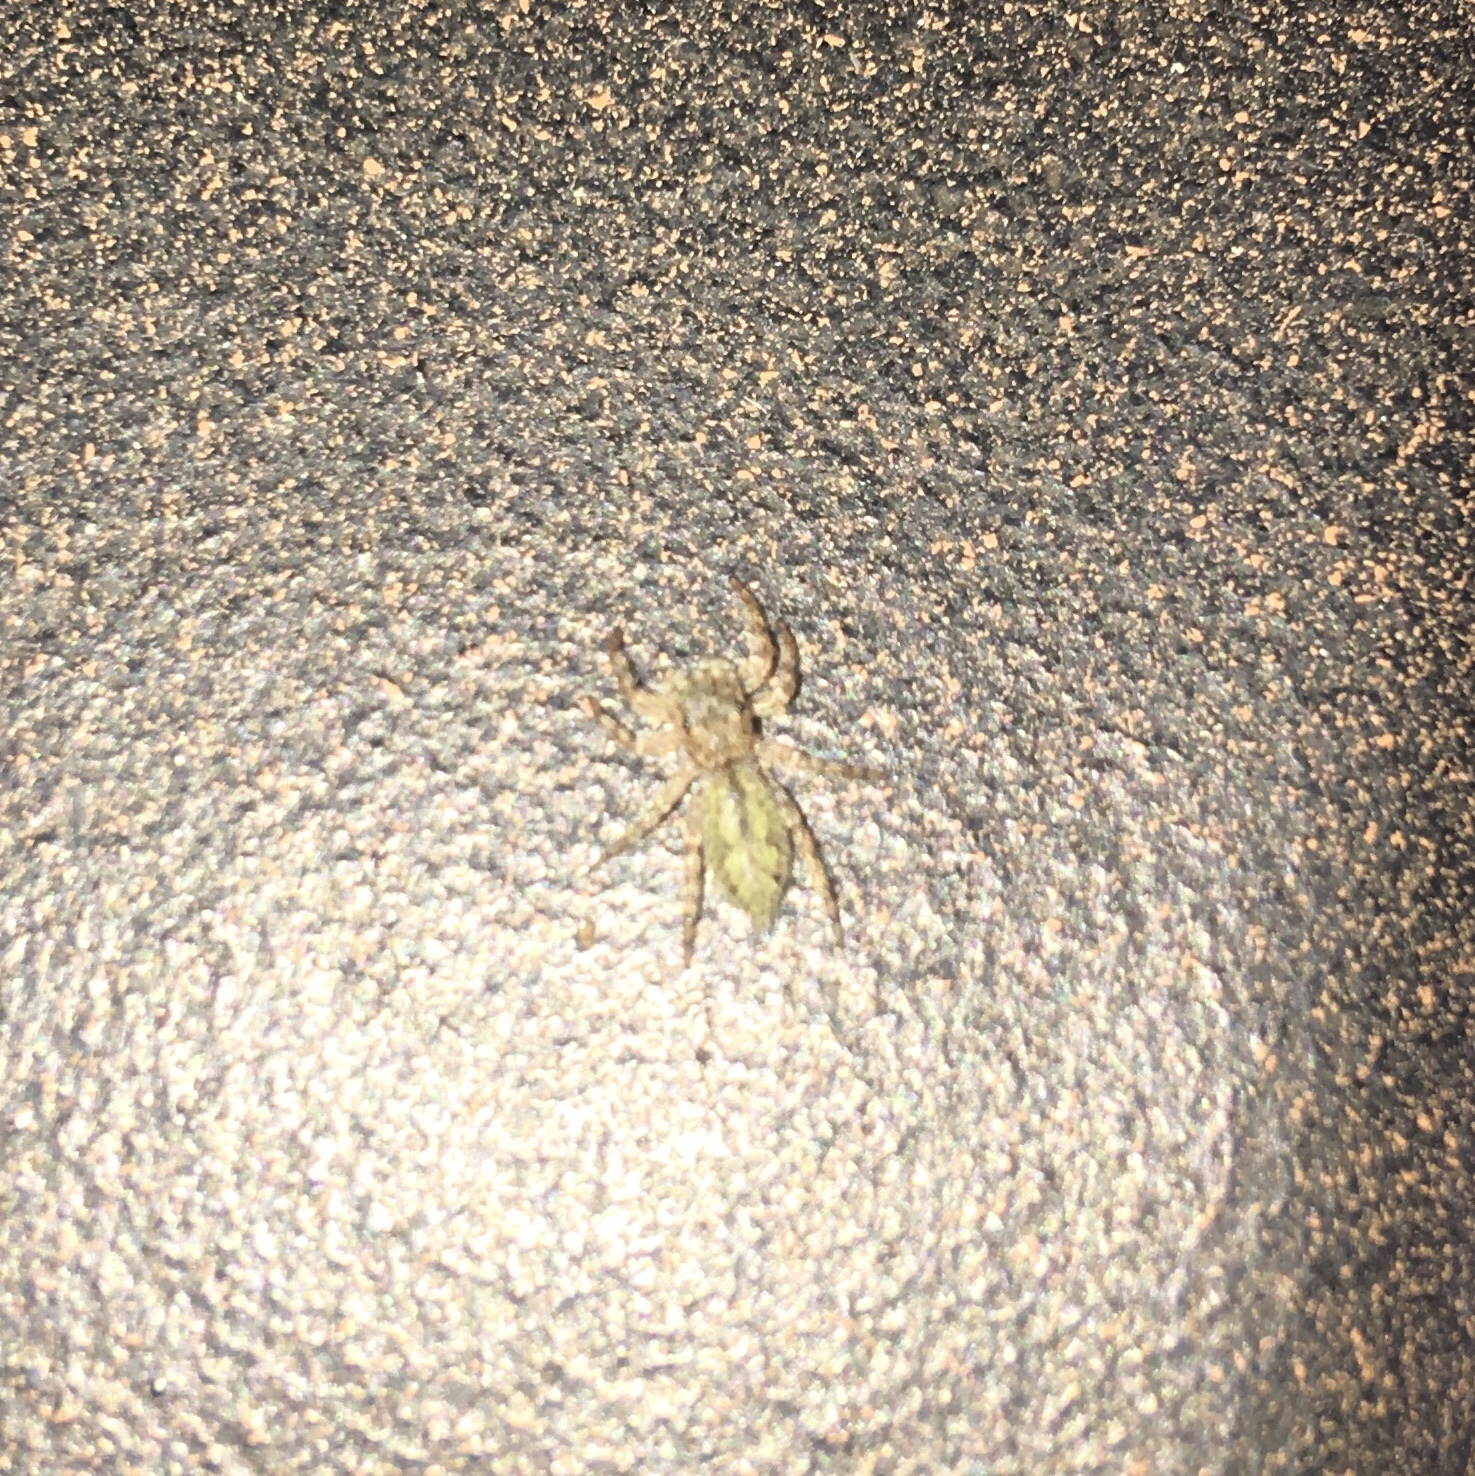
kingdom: Animalia
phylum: Arthropoda
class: Arachnida
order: Araneae
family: Salticidae
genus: Platycryptus
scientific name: Platycryptus undatus
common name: Tan jumping spider
